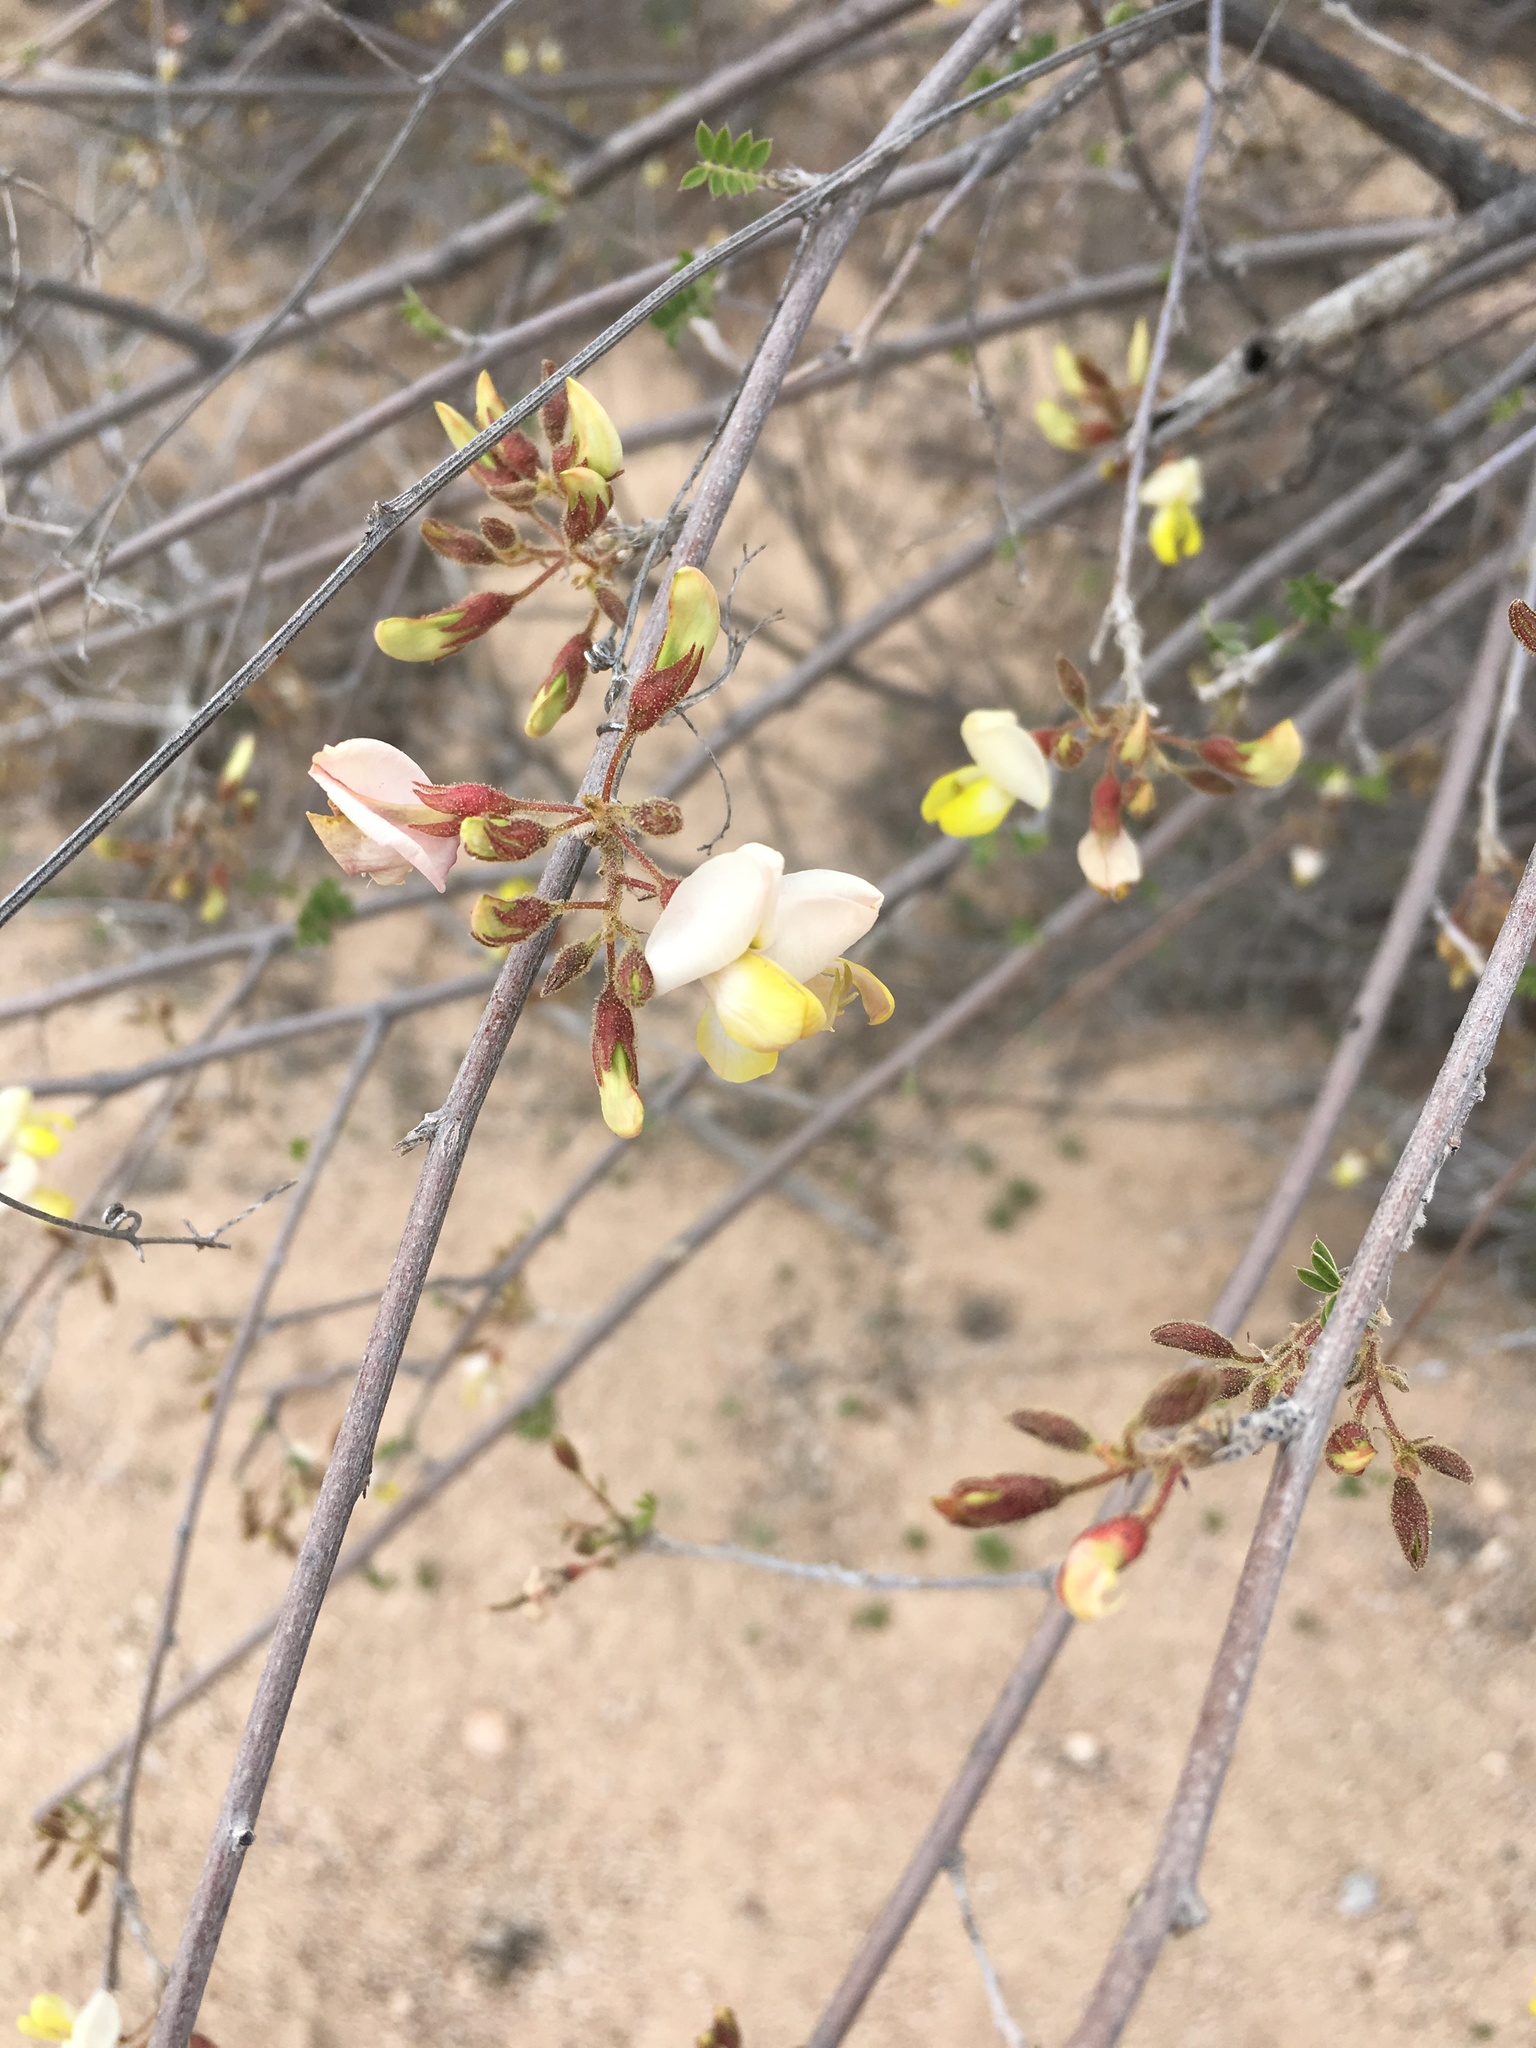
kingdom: Plantae
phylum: Tracheophyta
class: Magnoliopsida
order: Fabales
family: Fabaceae
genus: Coursetia
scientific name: Coursetia glandulosa
